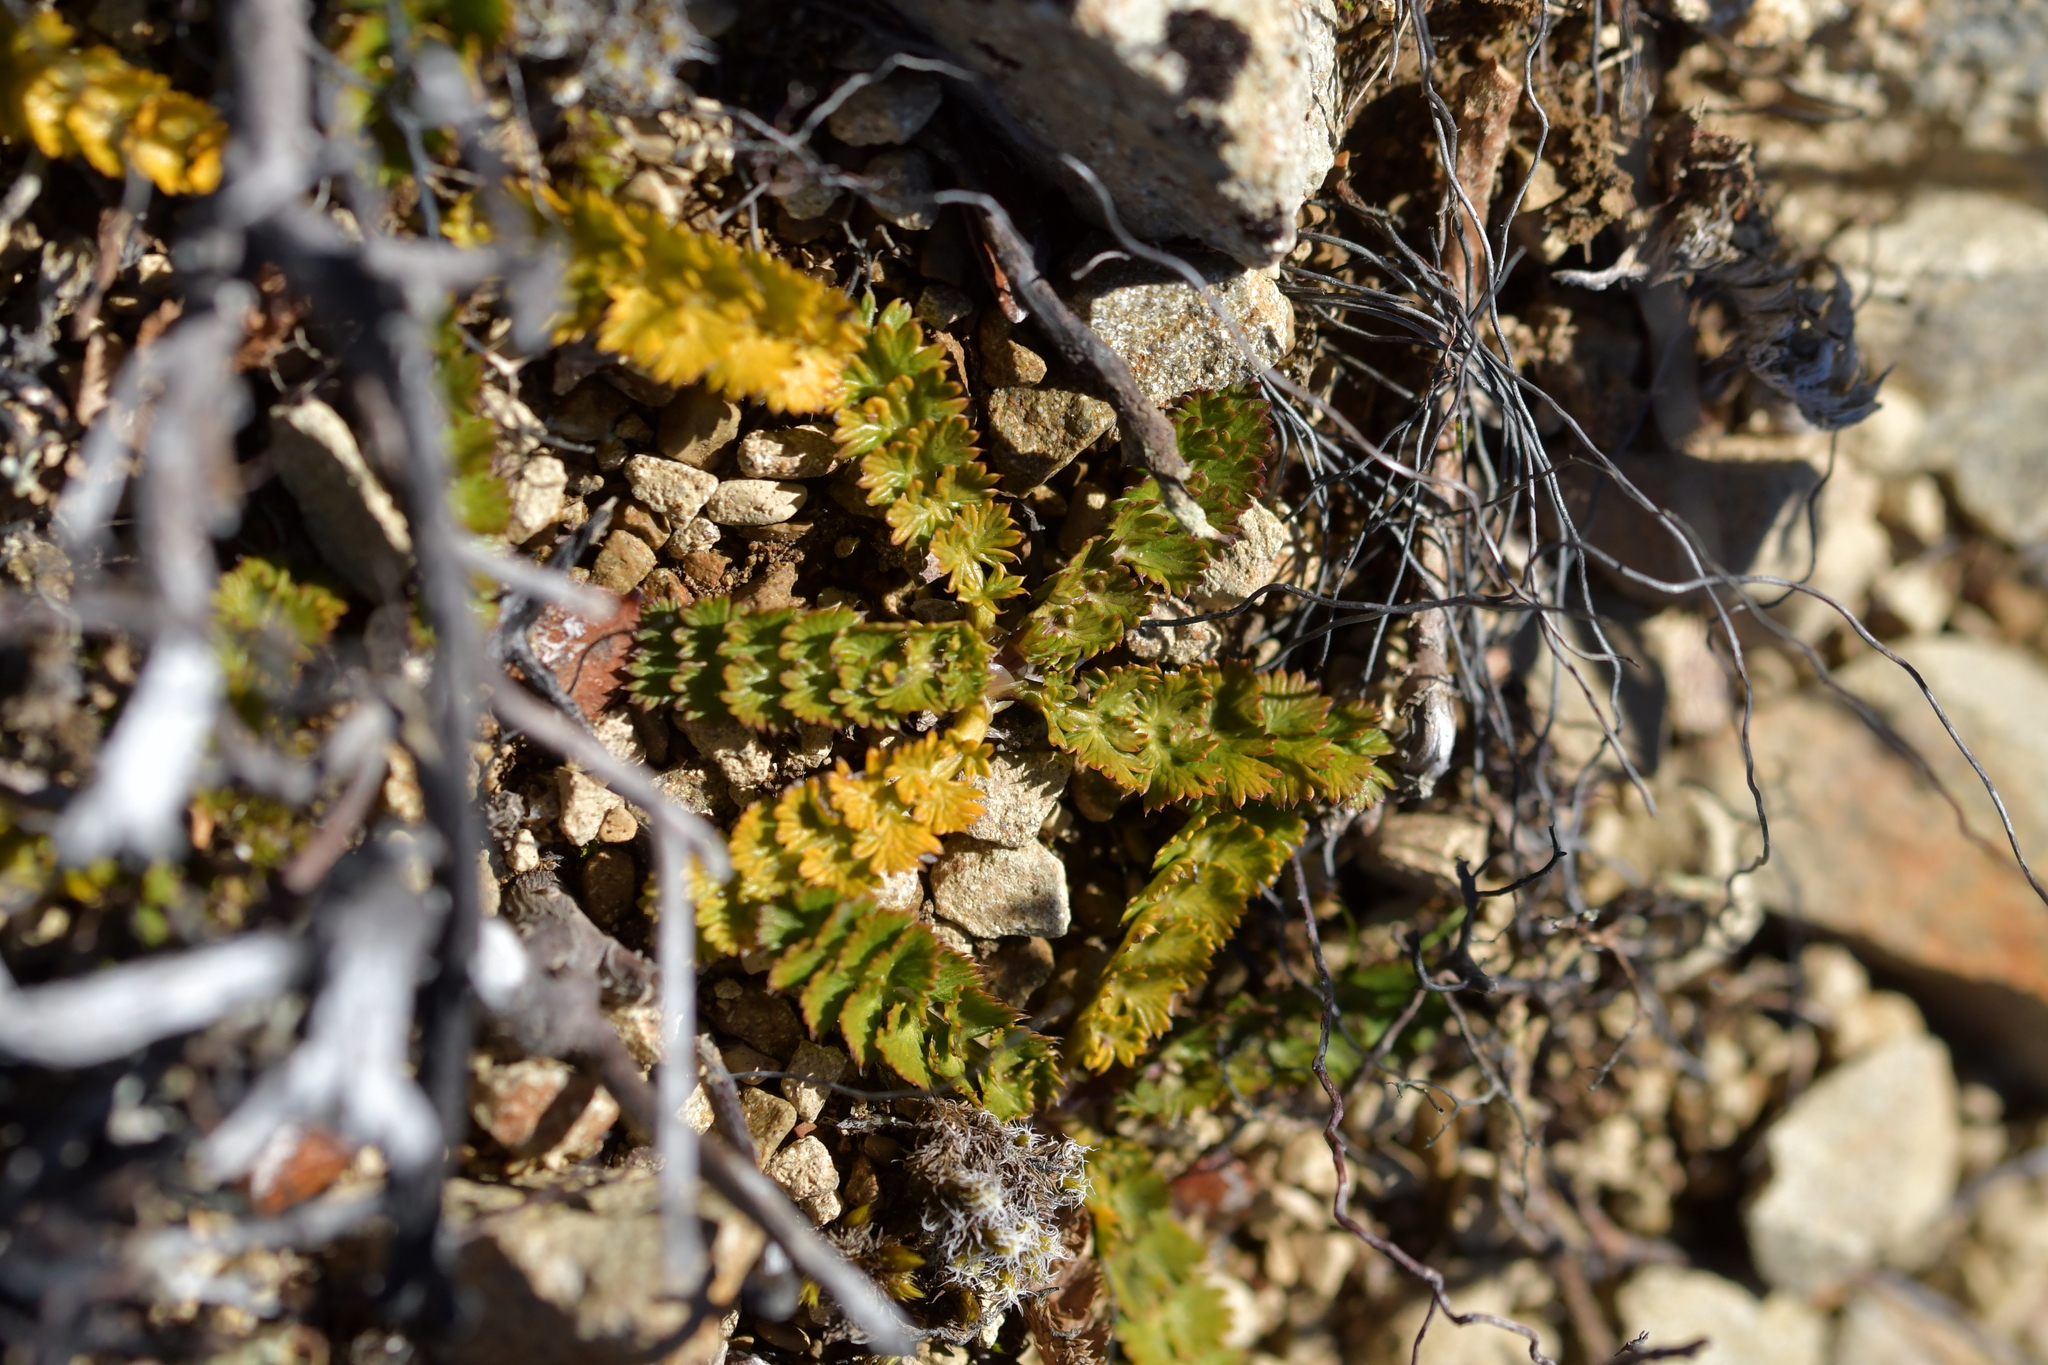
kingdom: Plantae
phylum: Tracheophyta
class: Magnoliopsida
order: Apiales
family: Apiaceae
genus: Anisotome
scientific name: Anisotome aromatica
